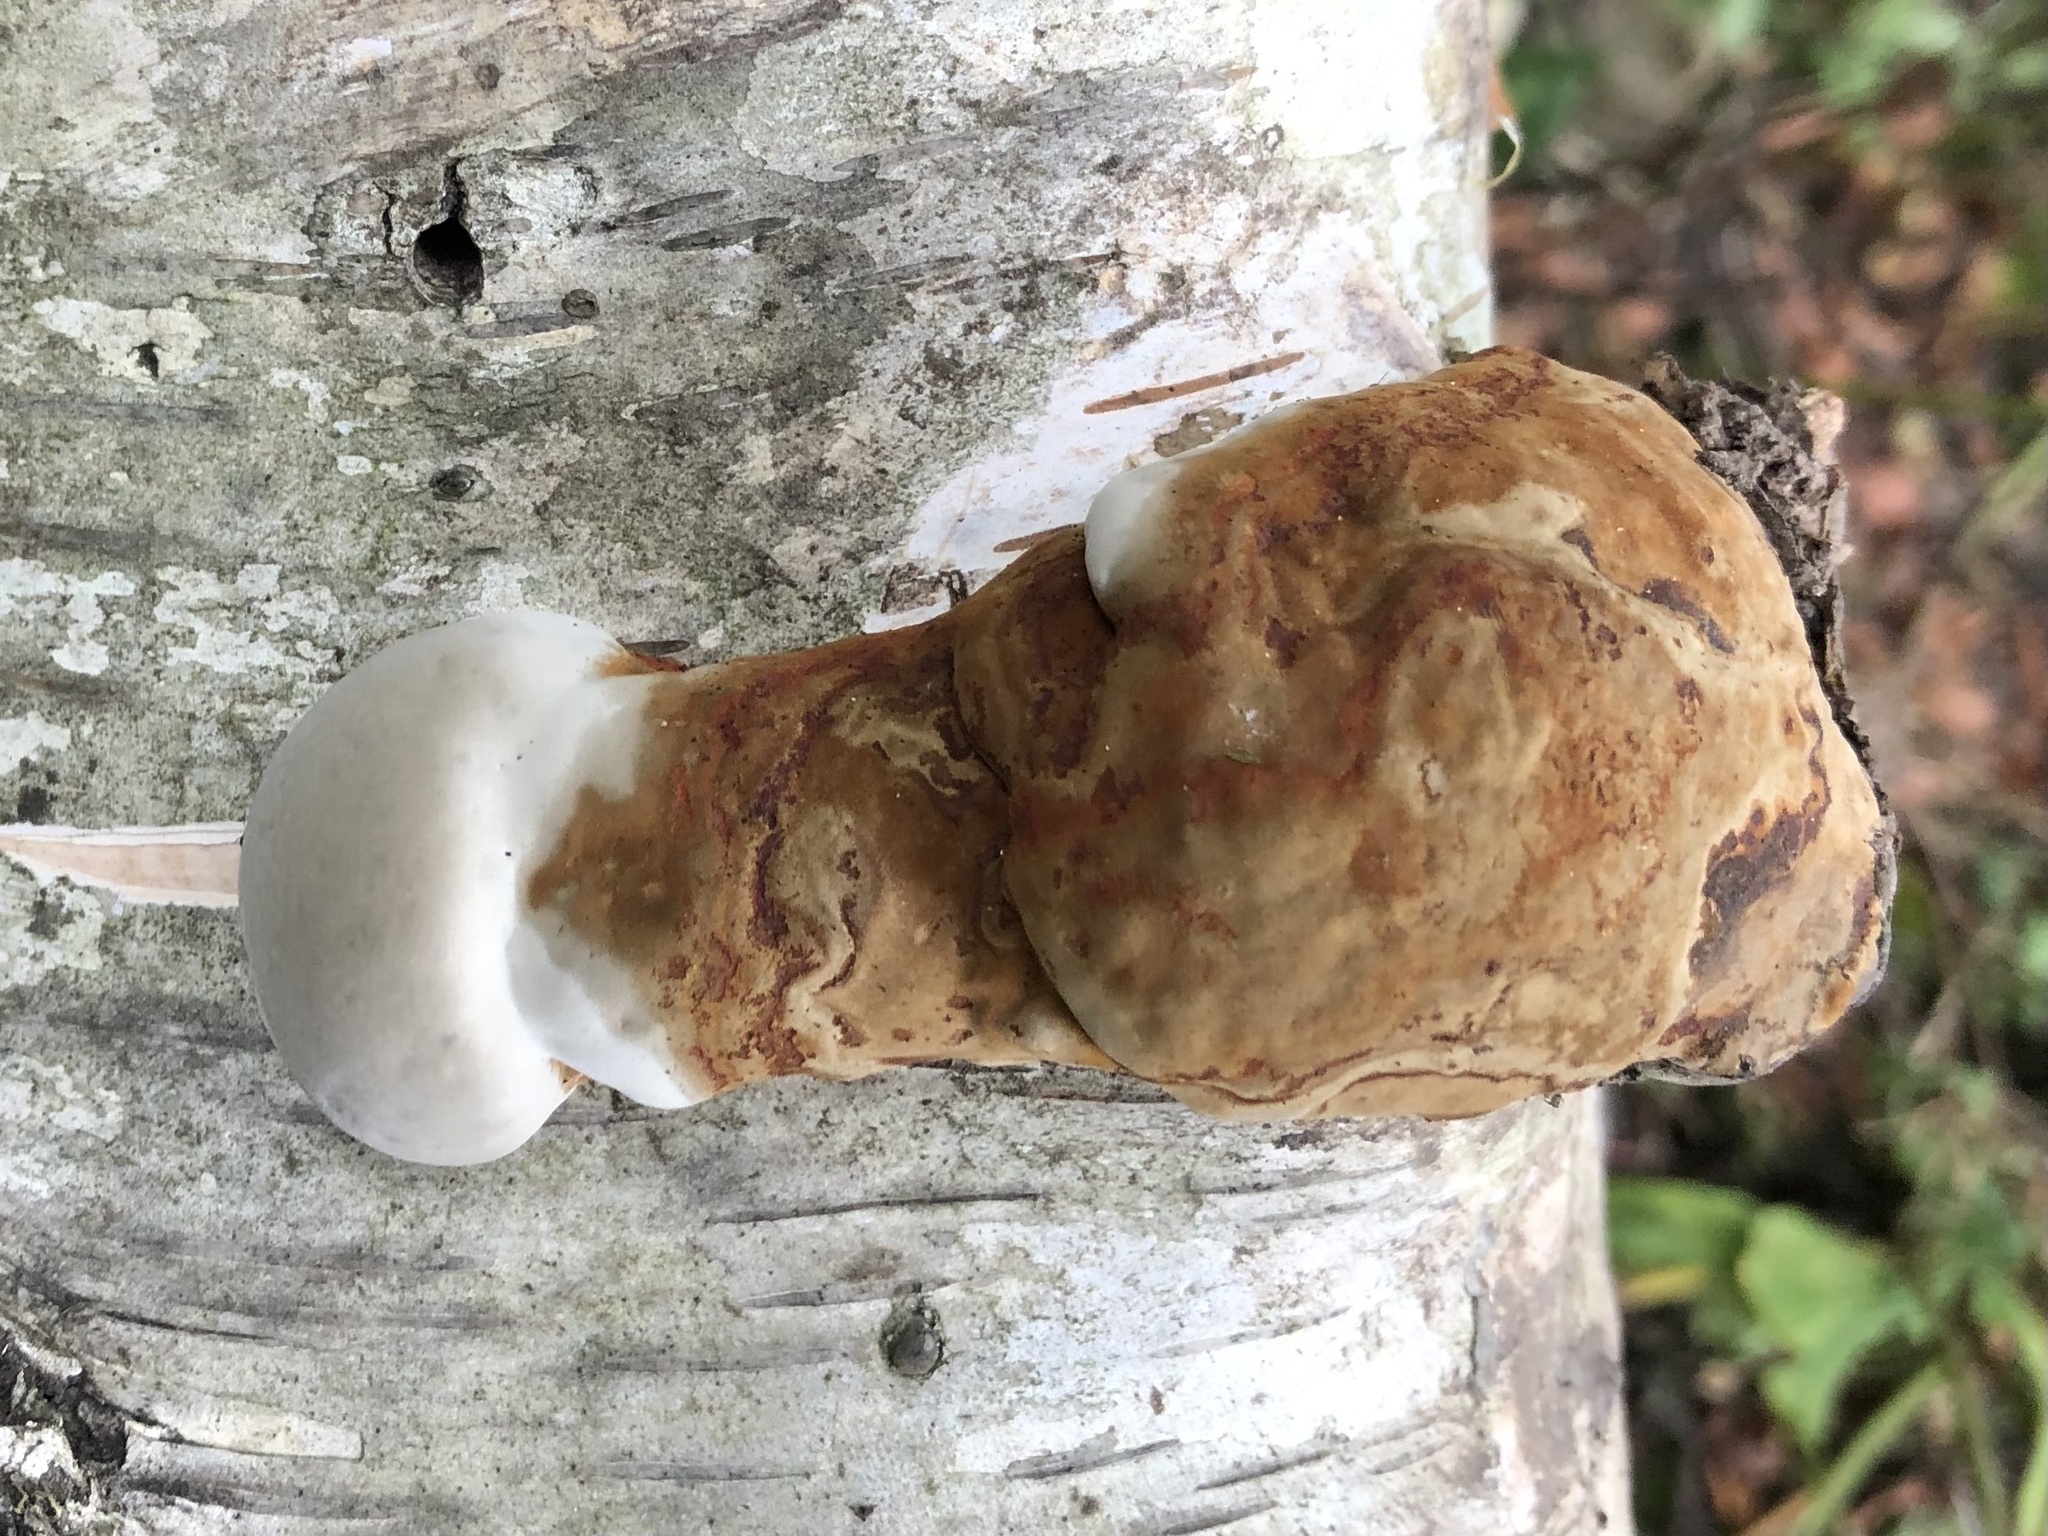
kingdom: Fungi
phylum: Basidiomycota
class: Agaricomycetes
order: Polyporales
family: Polyporaceae
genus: Fomes
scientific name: Fomes fomentarius
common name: Hoof fungus
